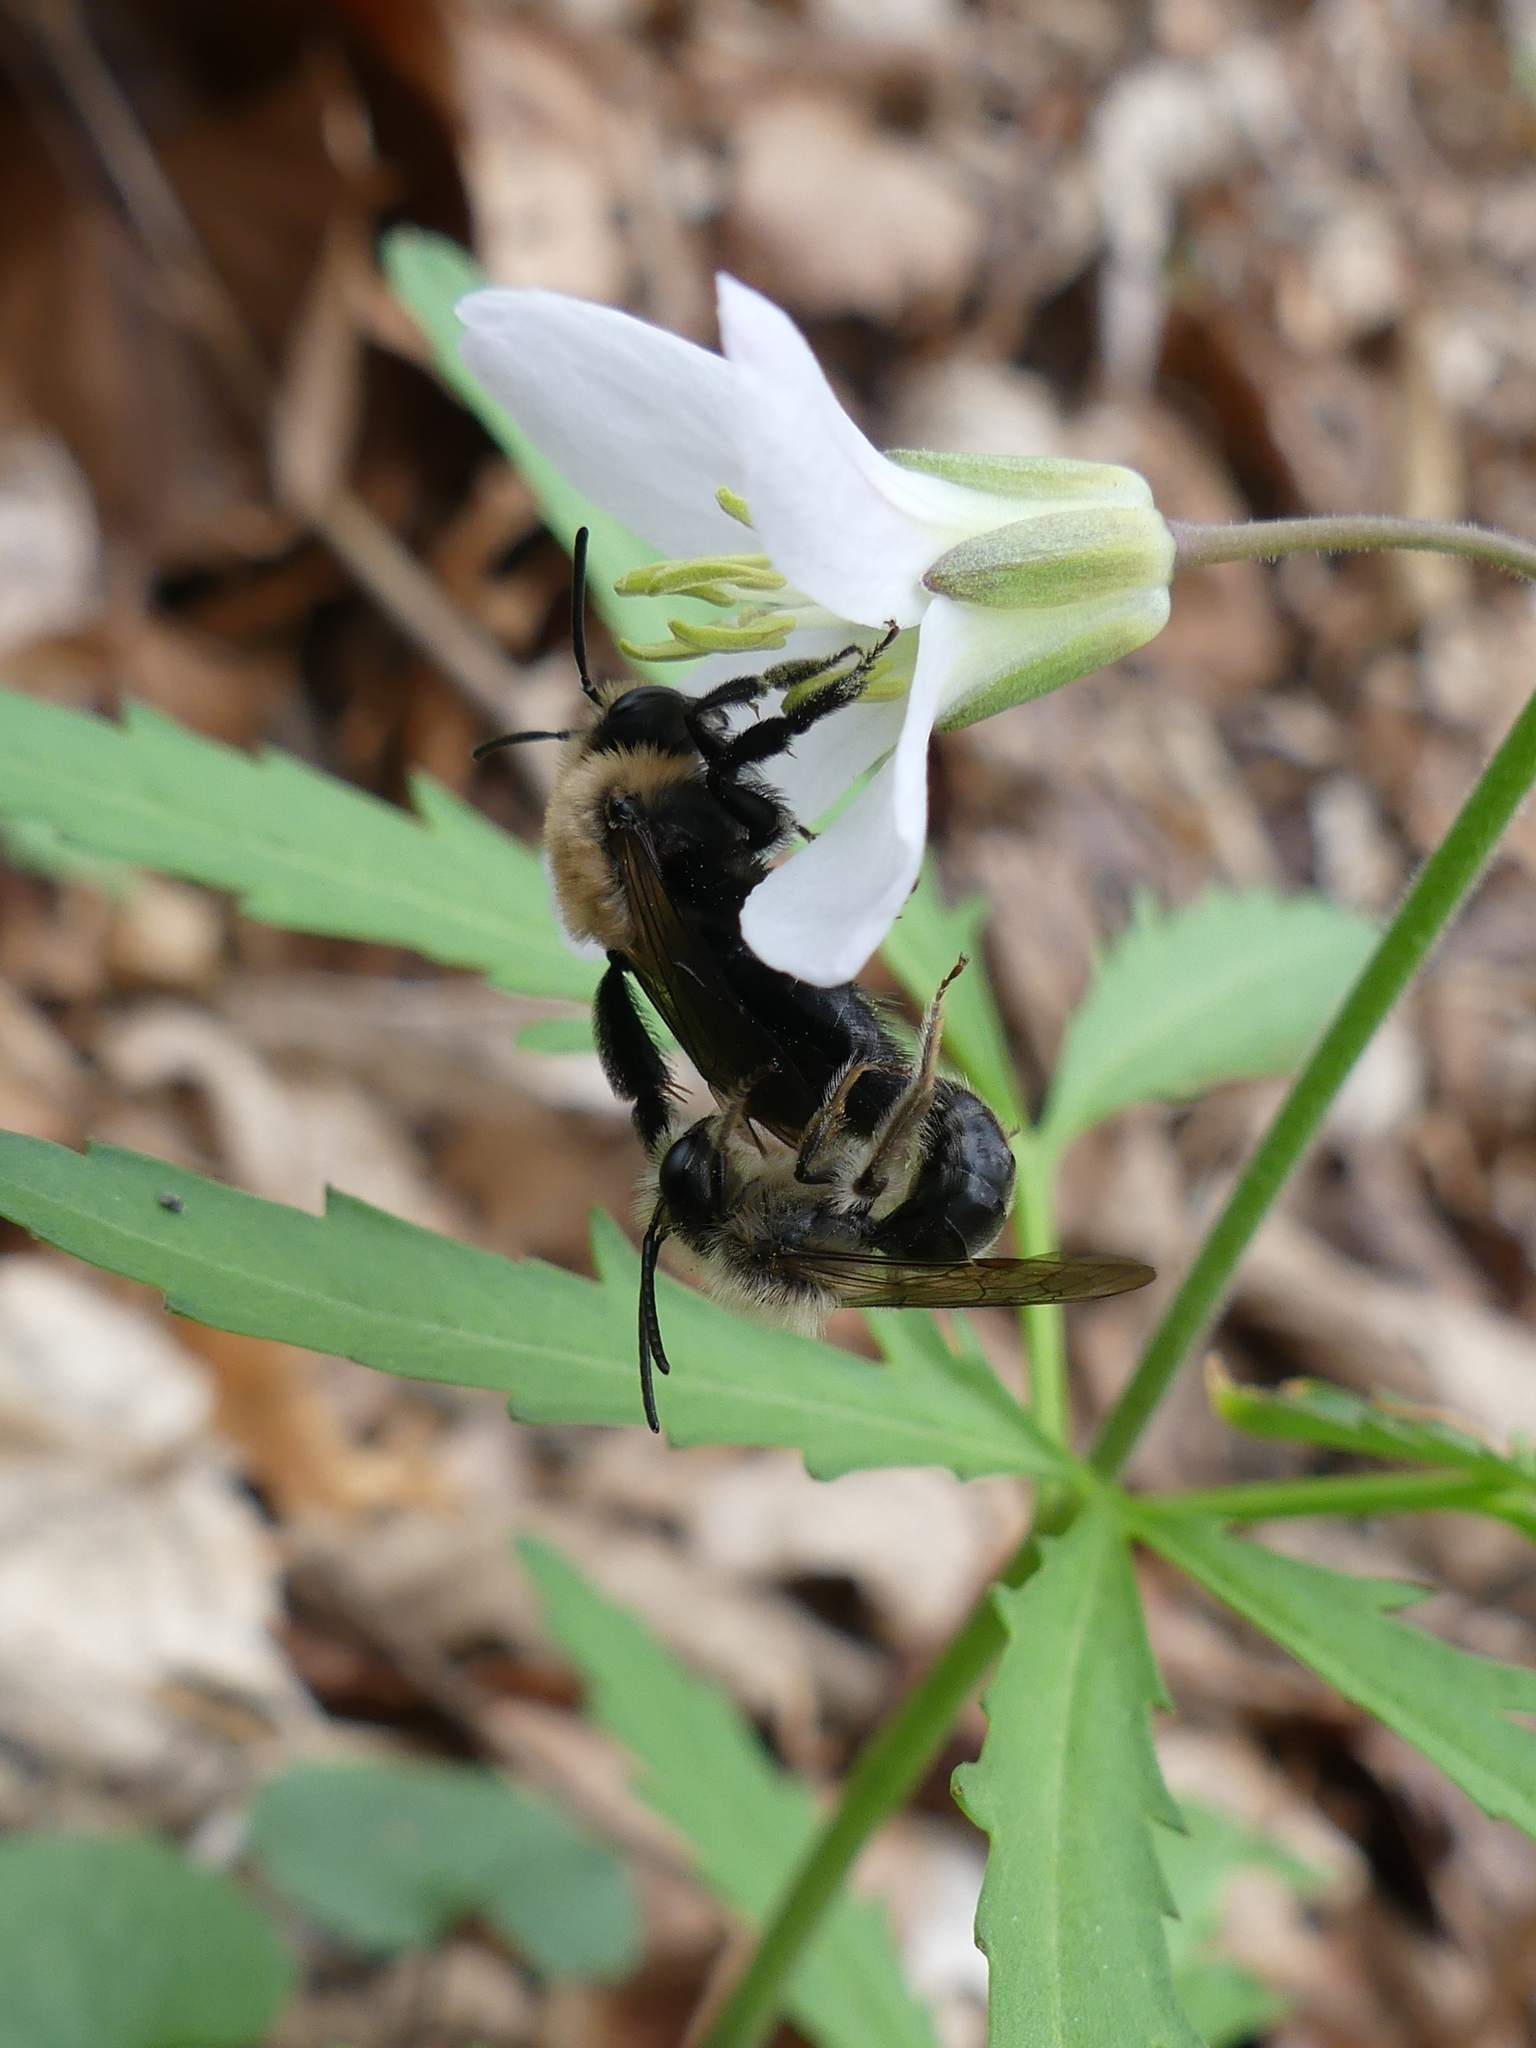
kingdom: Animalia
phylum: Arthropoda
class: Insecta
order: Hymenoptera
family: Andrenidae
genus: Andrena
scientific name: Andrena carlini
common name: Carlin's mining bee
